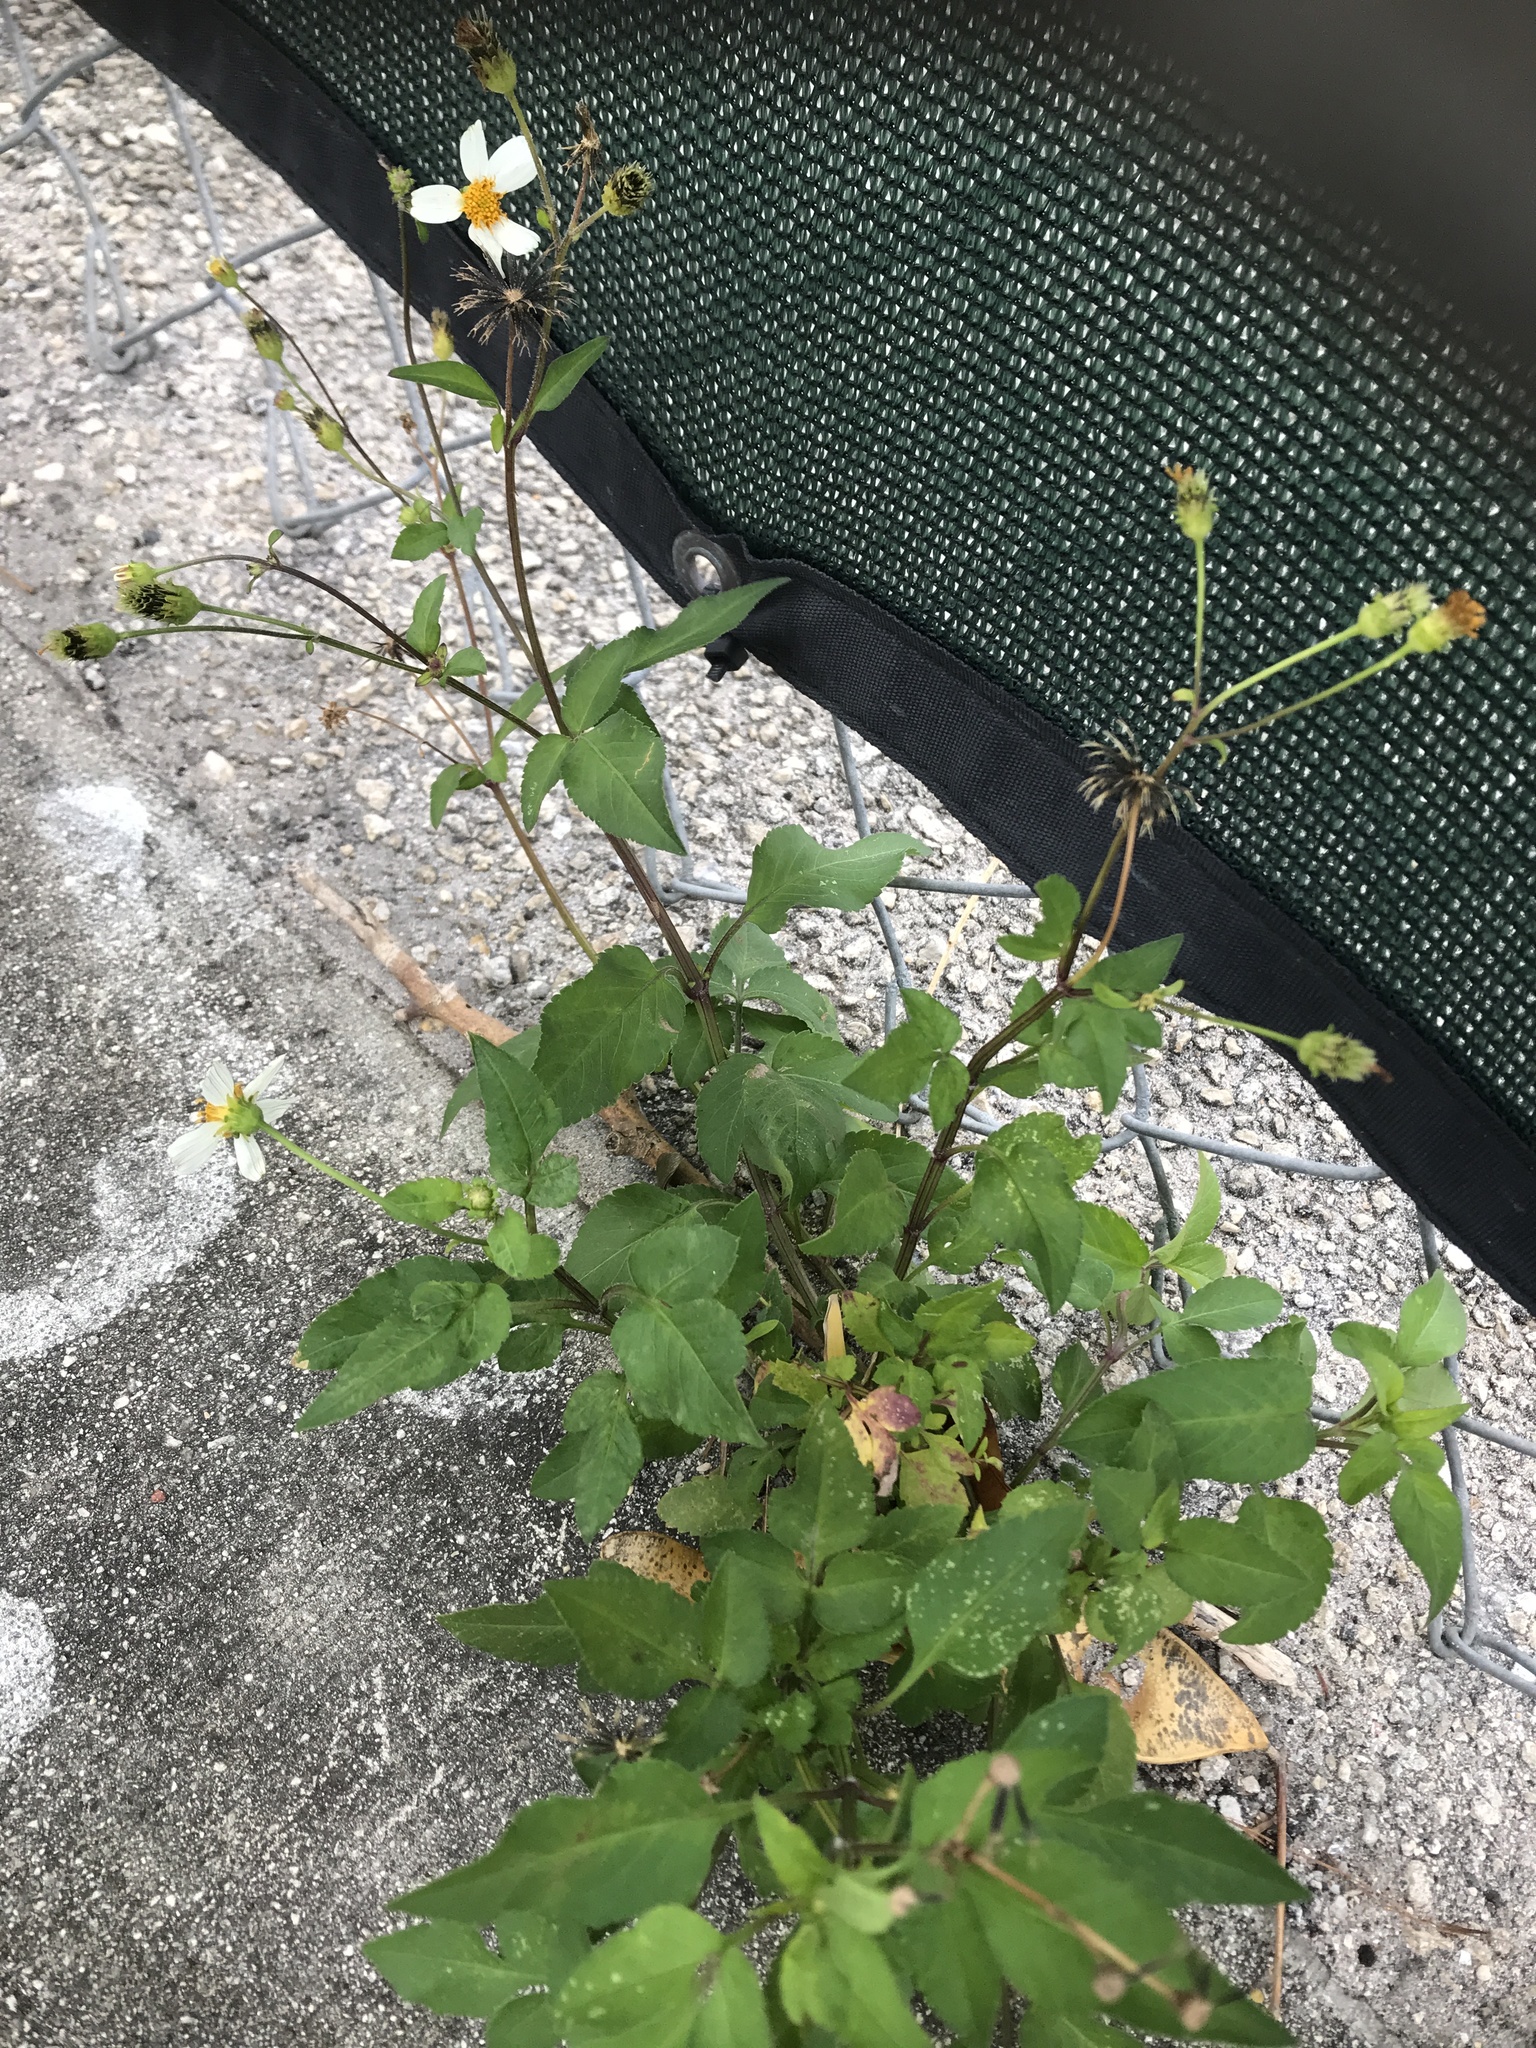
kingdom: Plantae
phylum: Tracheophyta
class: Magnoliopsida
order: Asterales
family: Asteraceae
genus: Bidens
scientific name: Bidens alba
